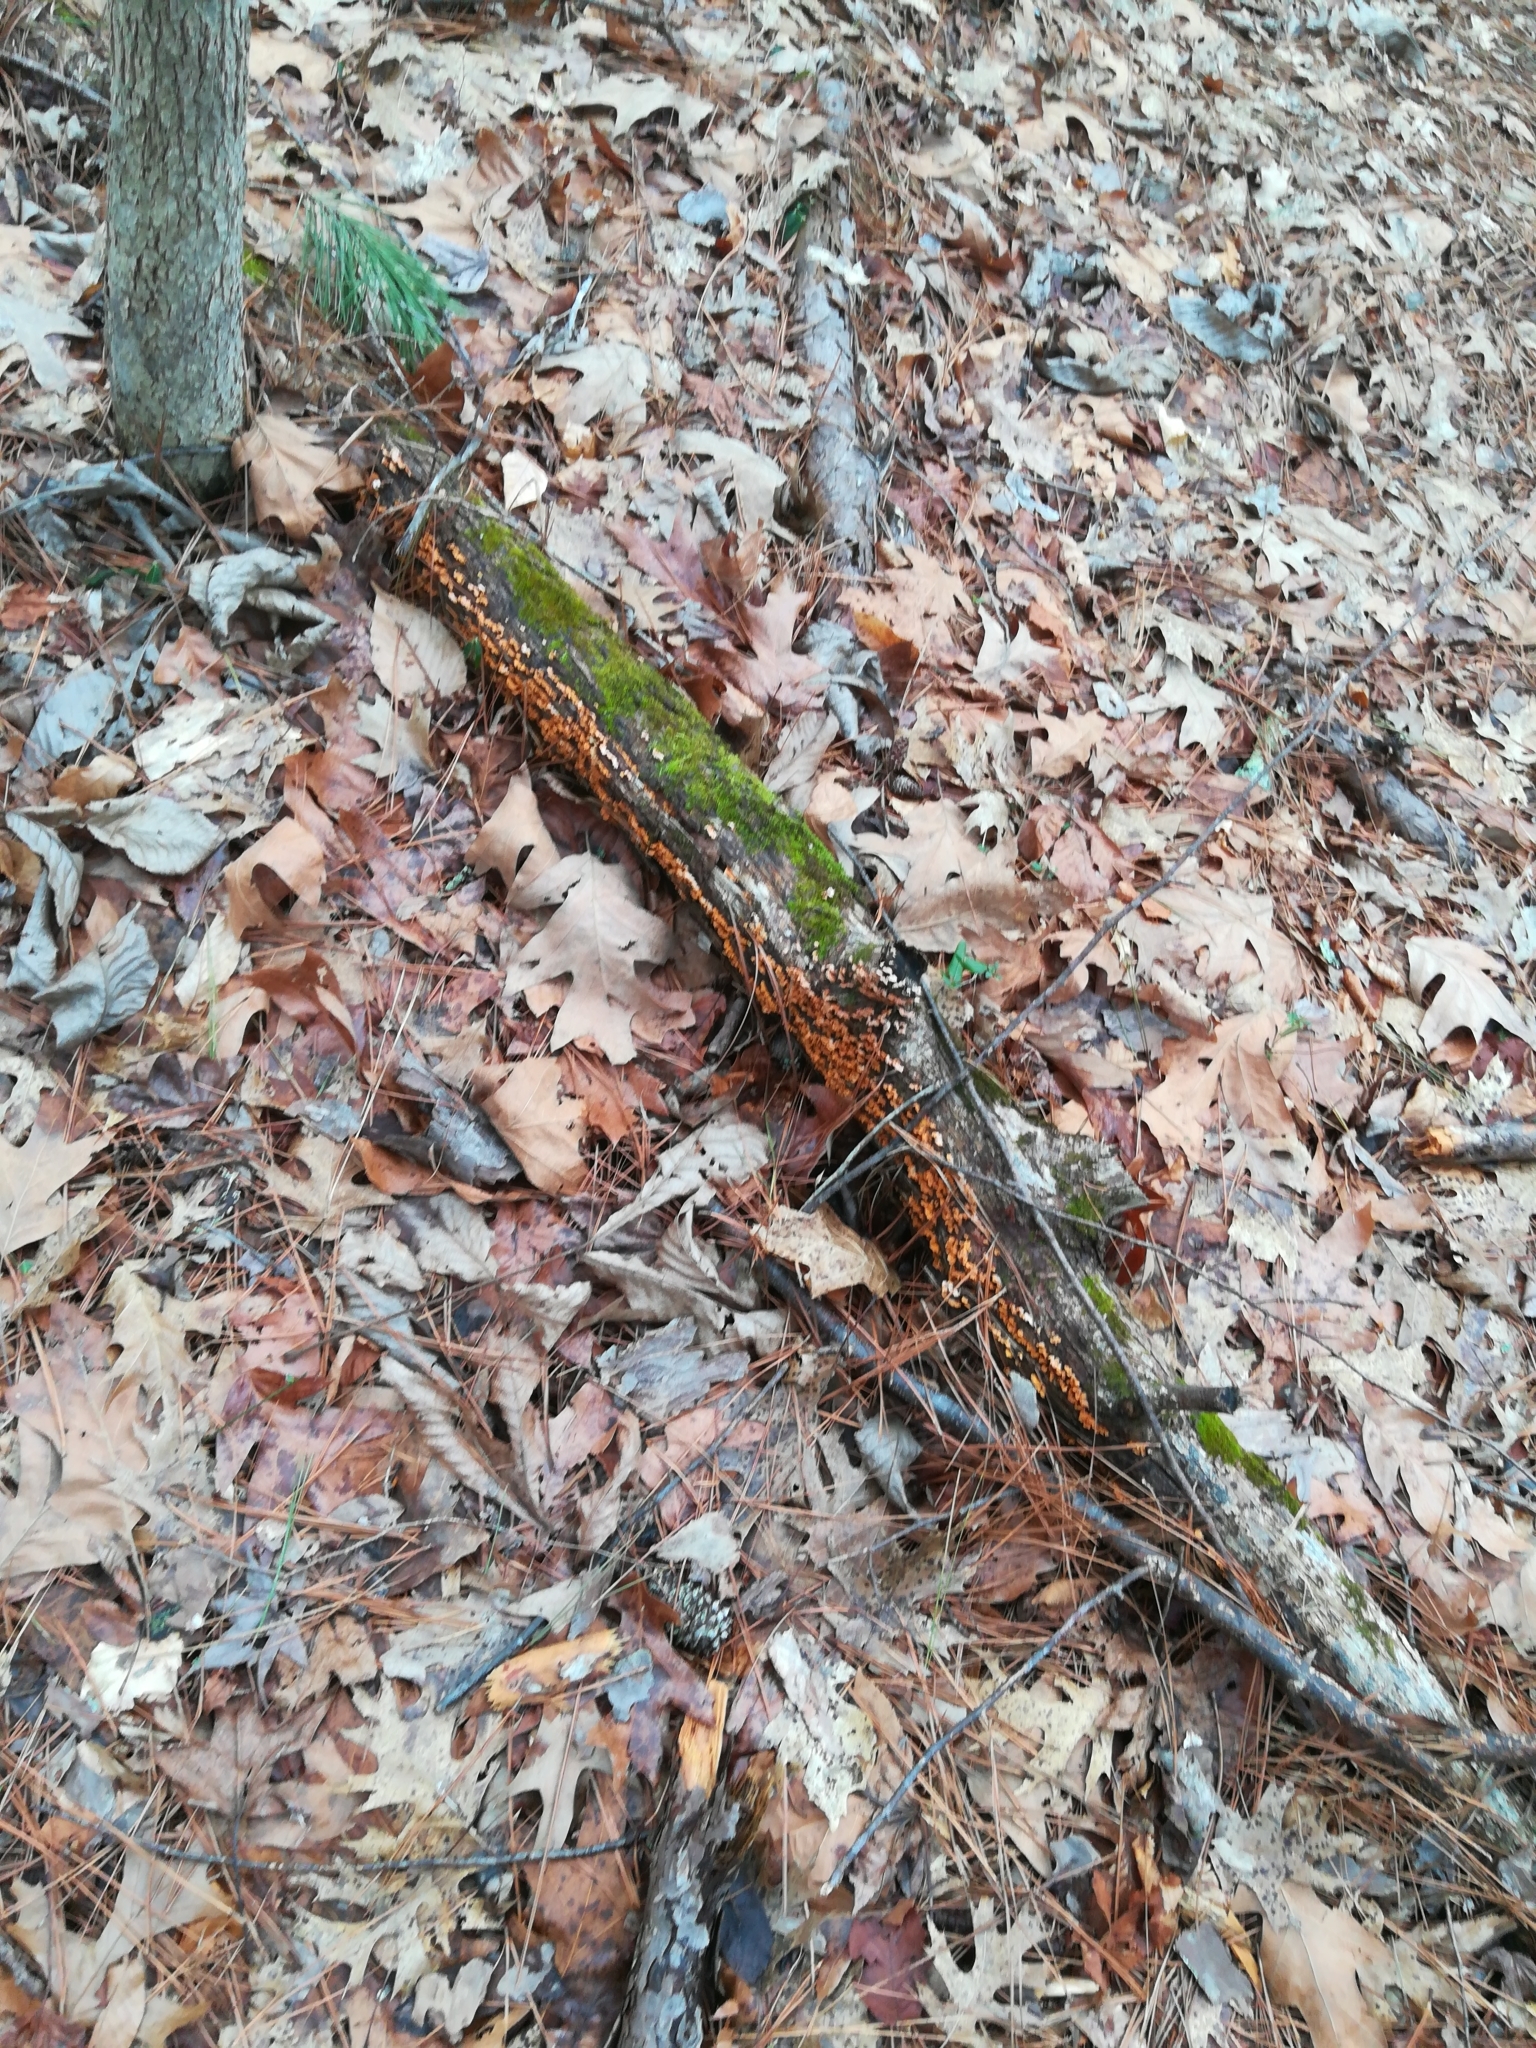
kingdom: Fungi
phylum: Basidiomycota
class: Agaricomycetes
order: Russulales
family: Stereaceae
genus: Stereum
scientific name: Stereum complicatum
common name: Crowded parchment
